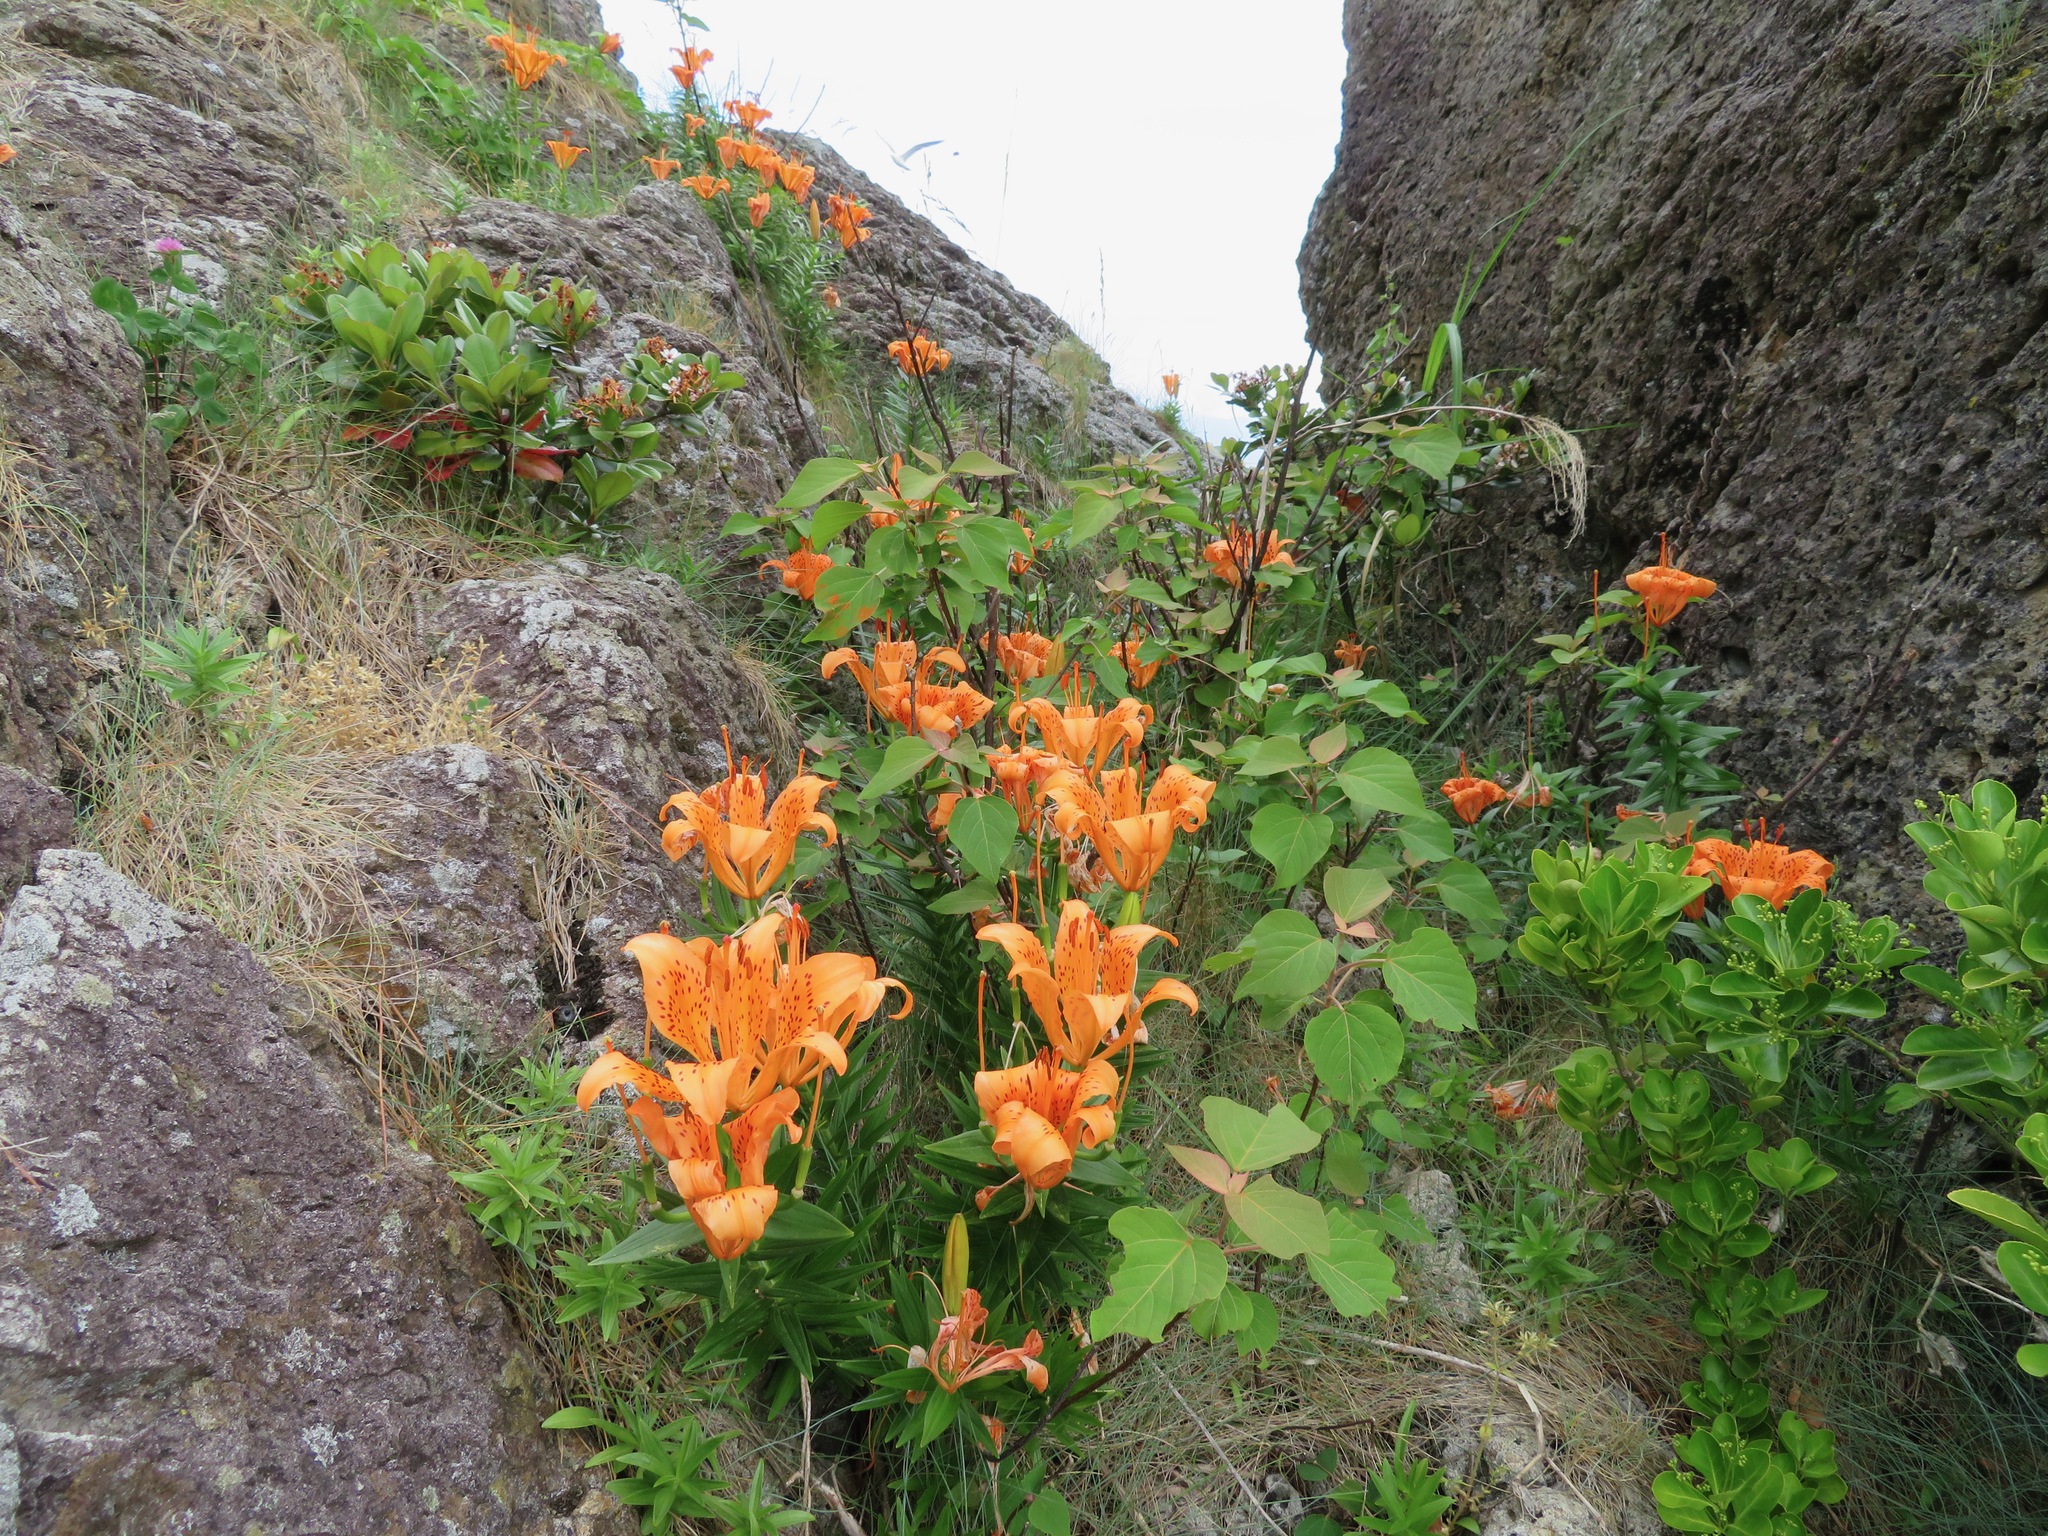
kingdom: Plantae
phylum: Tracheophyta
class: Liliopsida
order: Liliales
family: Liliaceae
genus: Lilium
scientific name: Lilium maculatum
